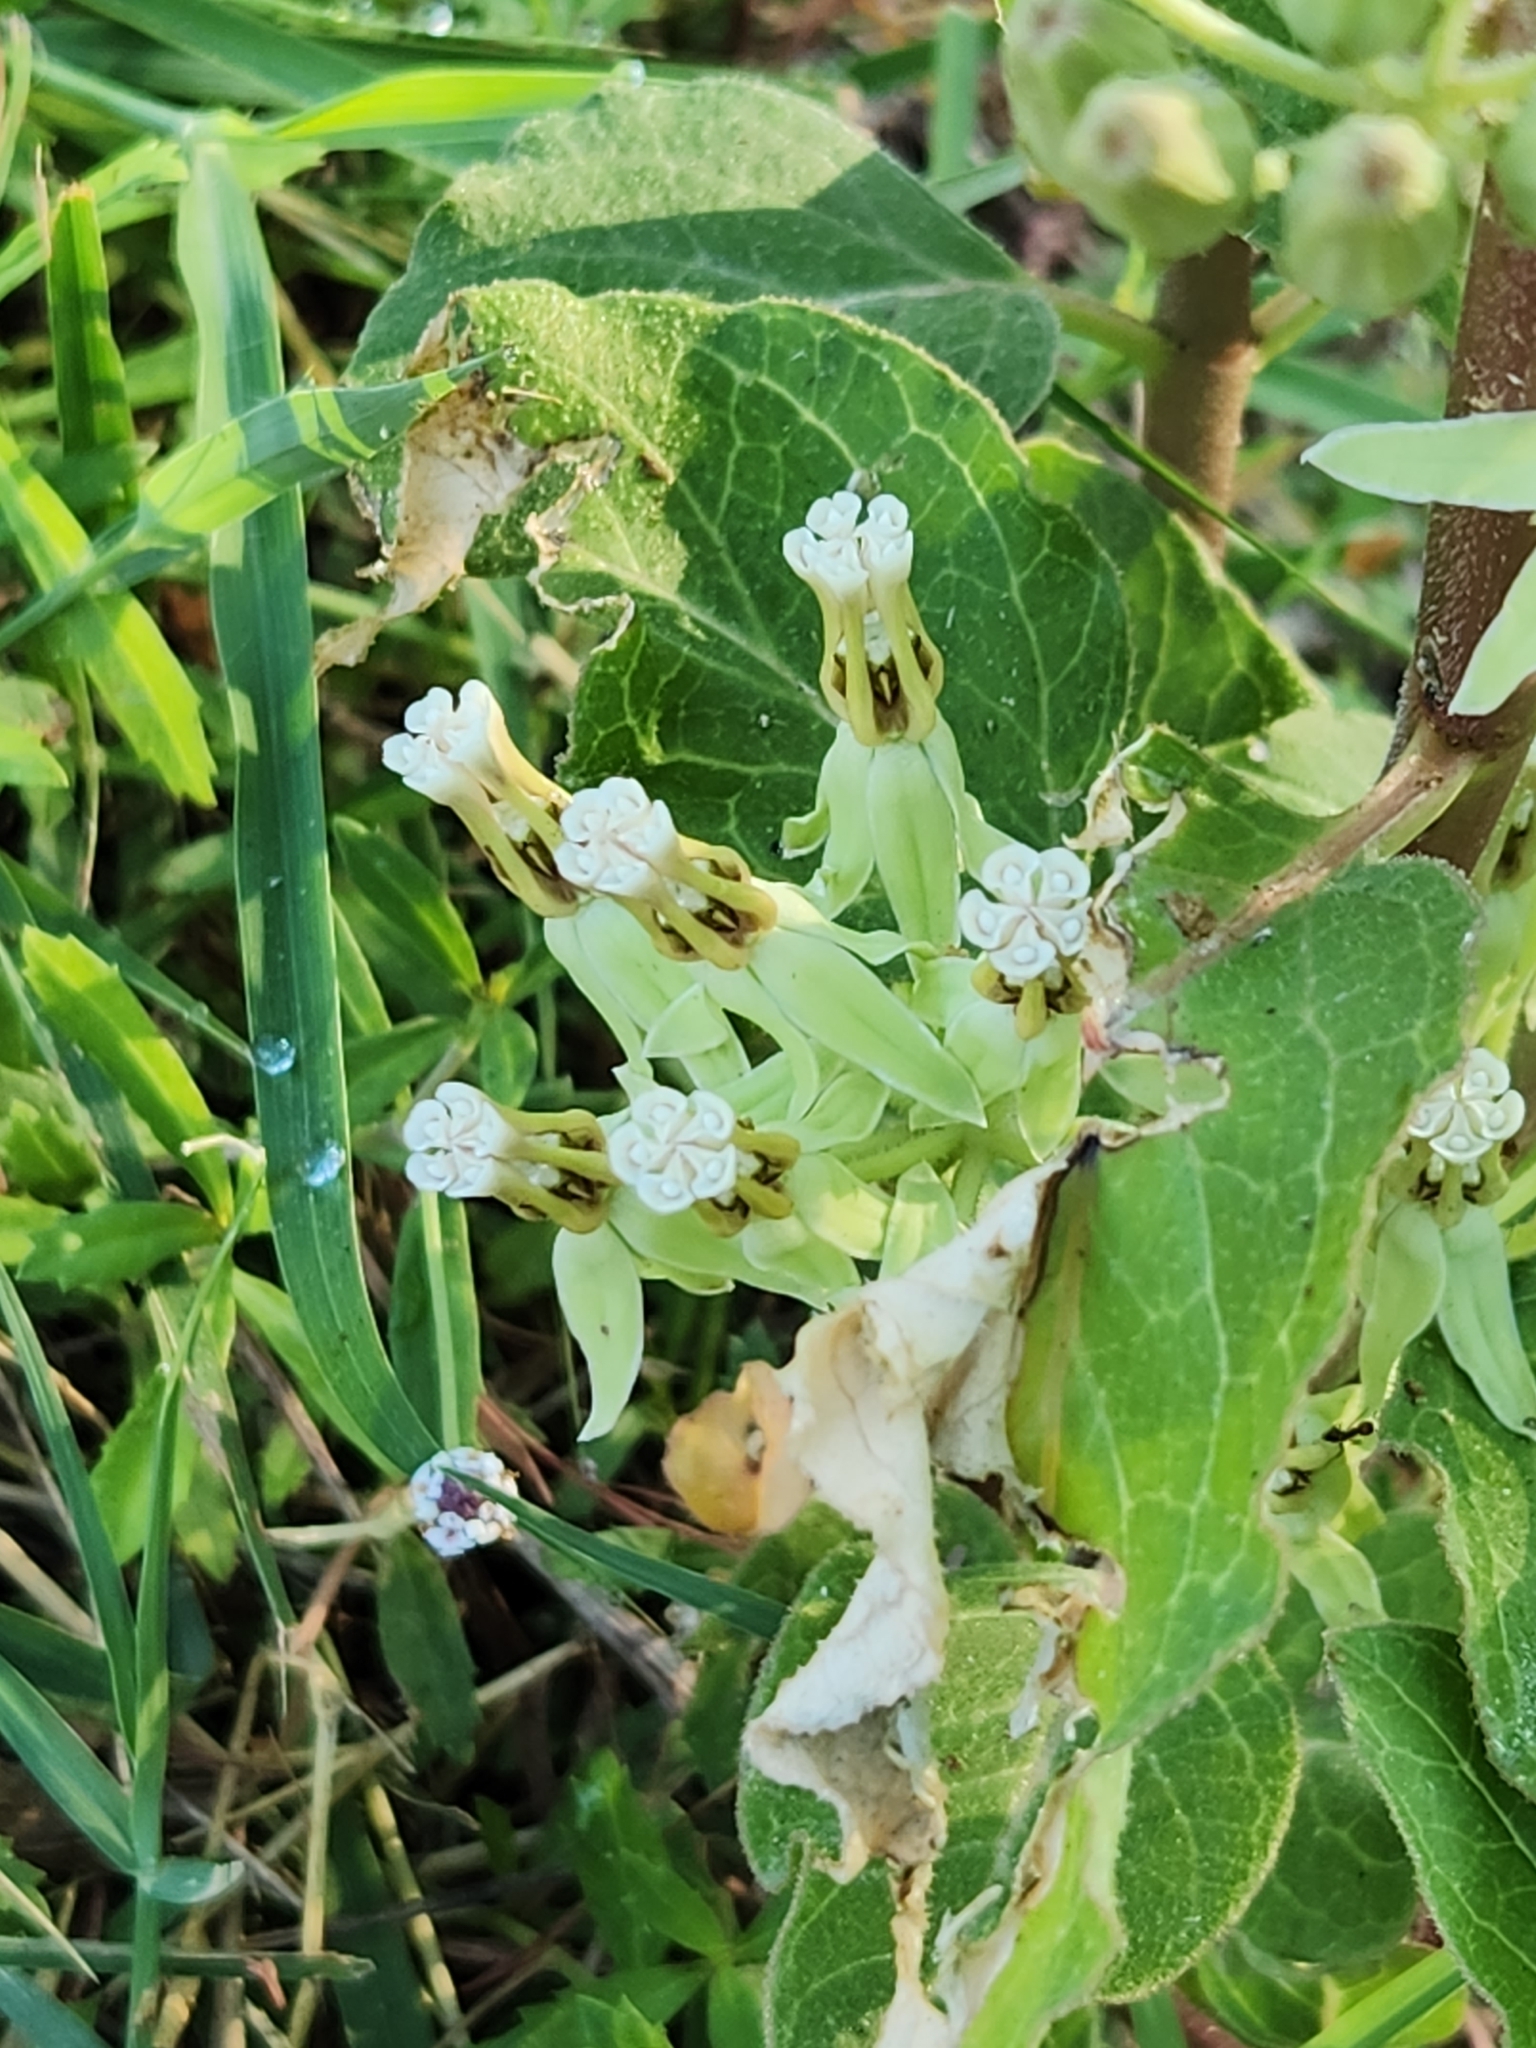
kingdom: Plantae
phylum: Tracheophyta
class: Magnoliopsida
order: Gentianales
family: Apocynaceae
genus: Asclepias
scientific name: Asclepias oenotheroides
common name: Zizotes milkweed
